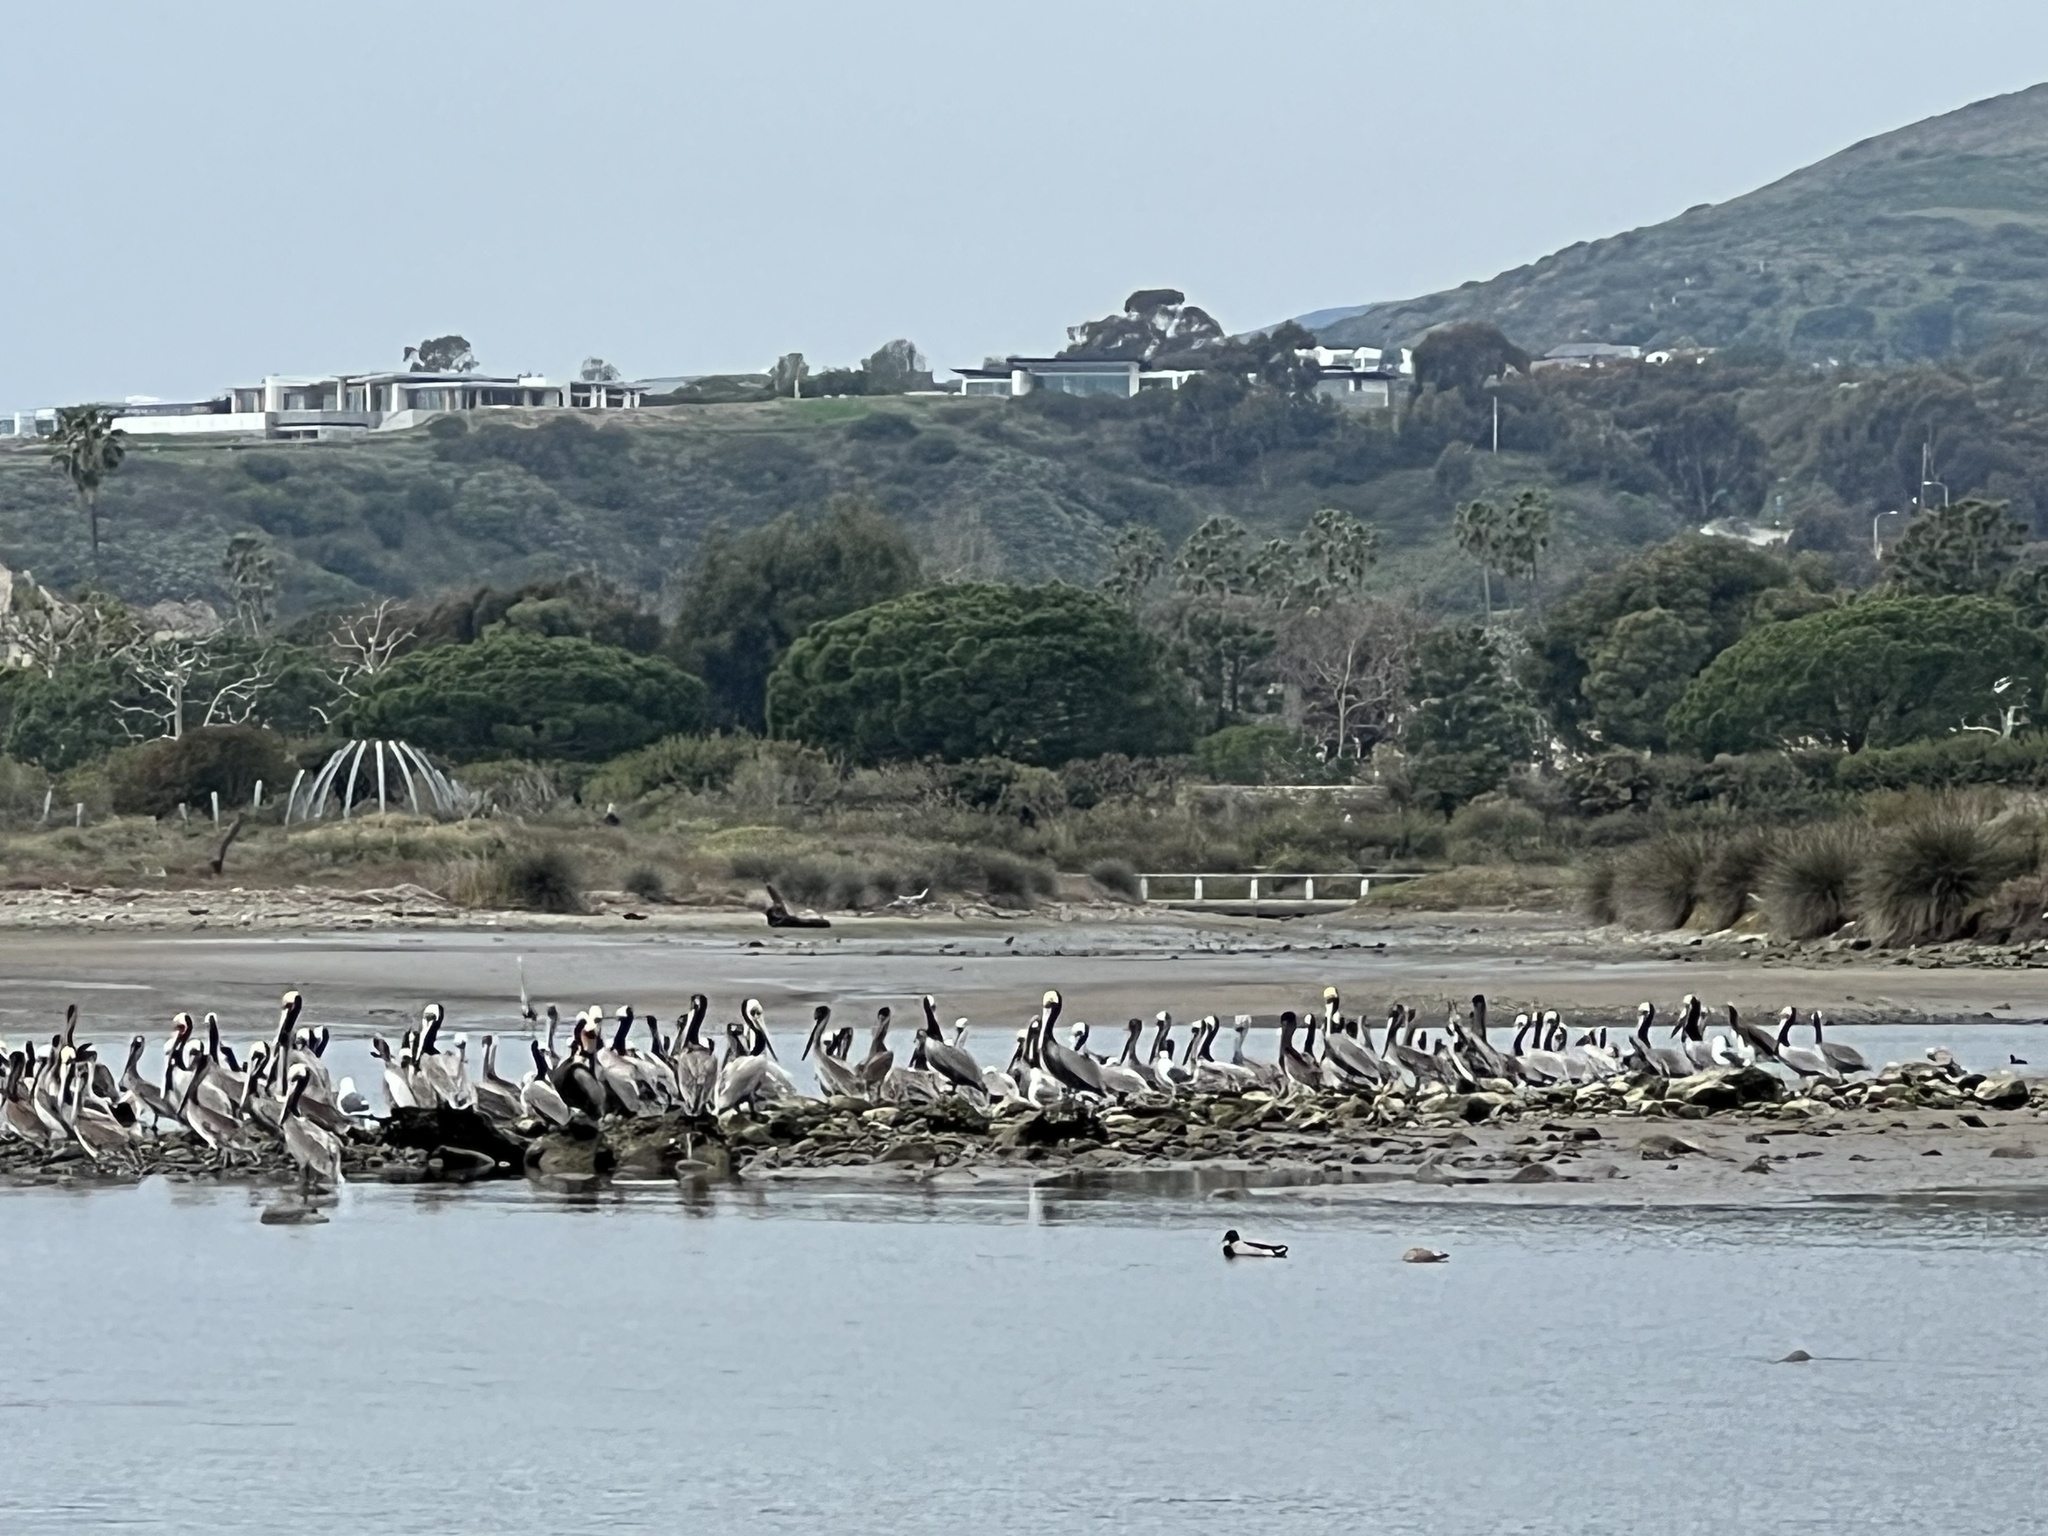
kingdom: Animalia
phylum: Chordata
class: Aves
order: Pelecaniformes
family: Pelecanidae
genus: Pelecanus
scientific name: Pelecanus occidentalis
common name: Brown pelican
